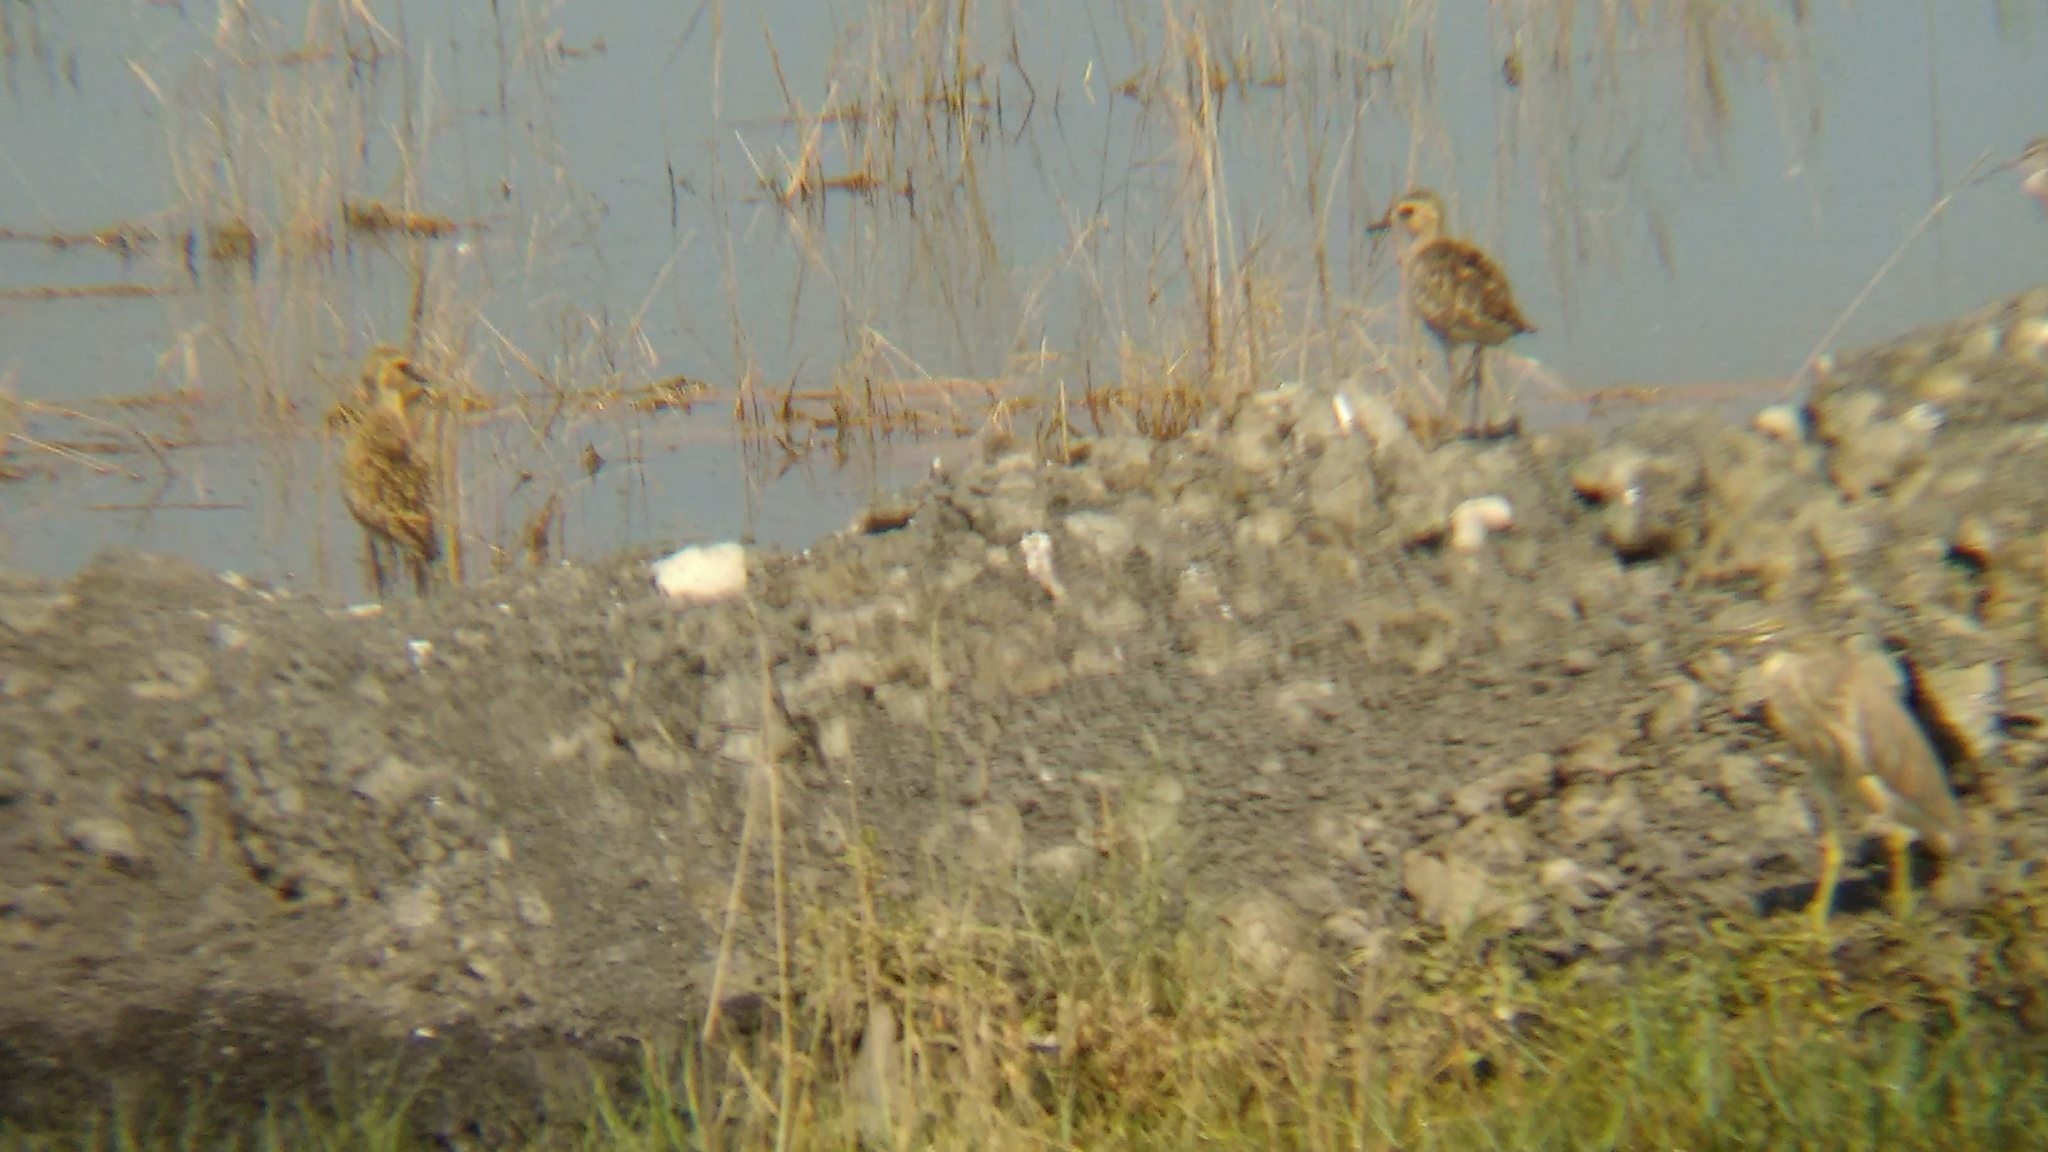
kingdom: Animalia
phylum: Chordata
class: Aves
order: Charadriiformes
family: Charadriidae
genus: Pluvialis
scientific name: Pluvialis fulva
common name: Pacific golden plover
